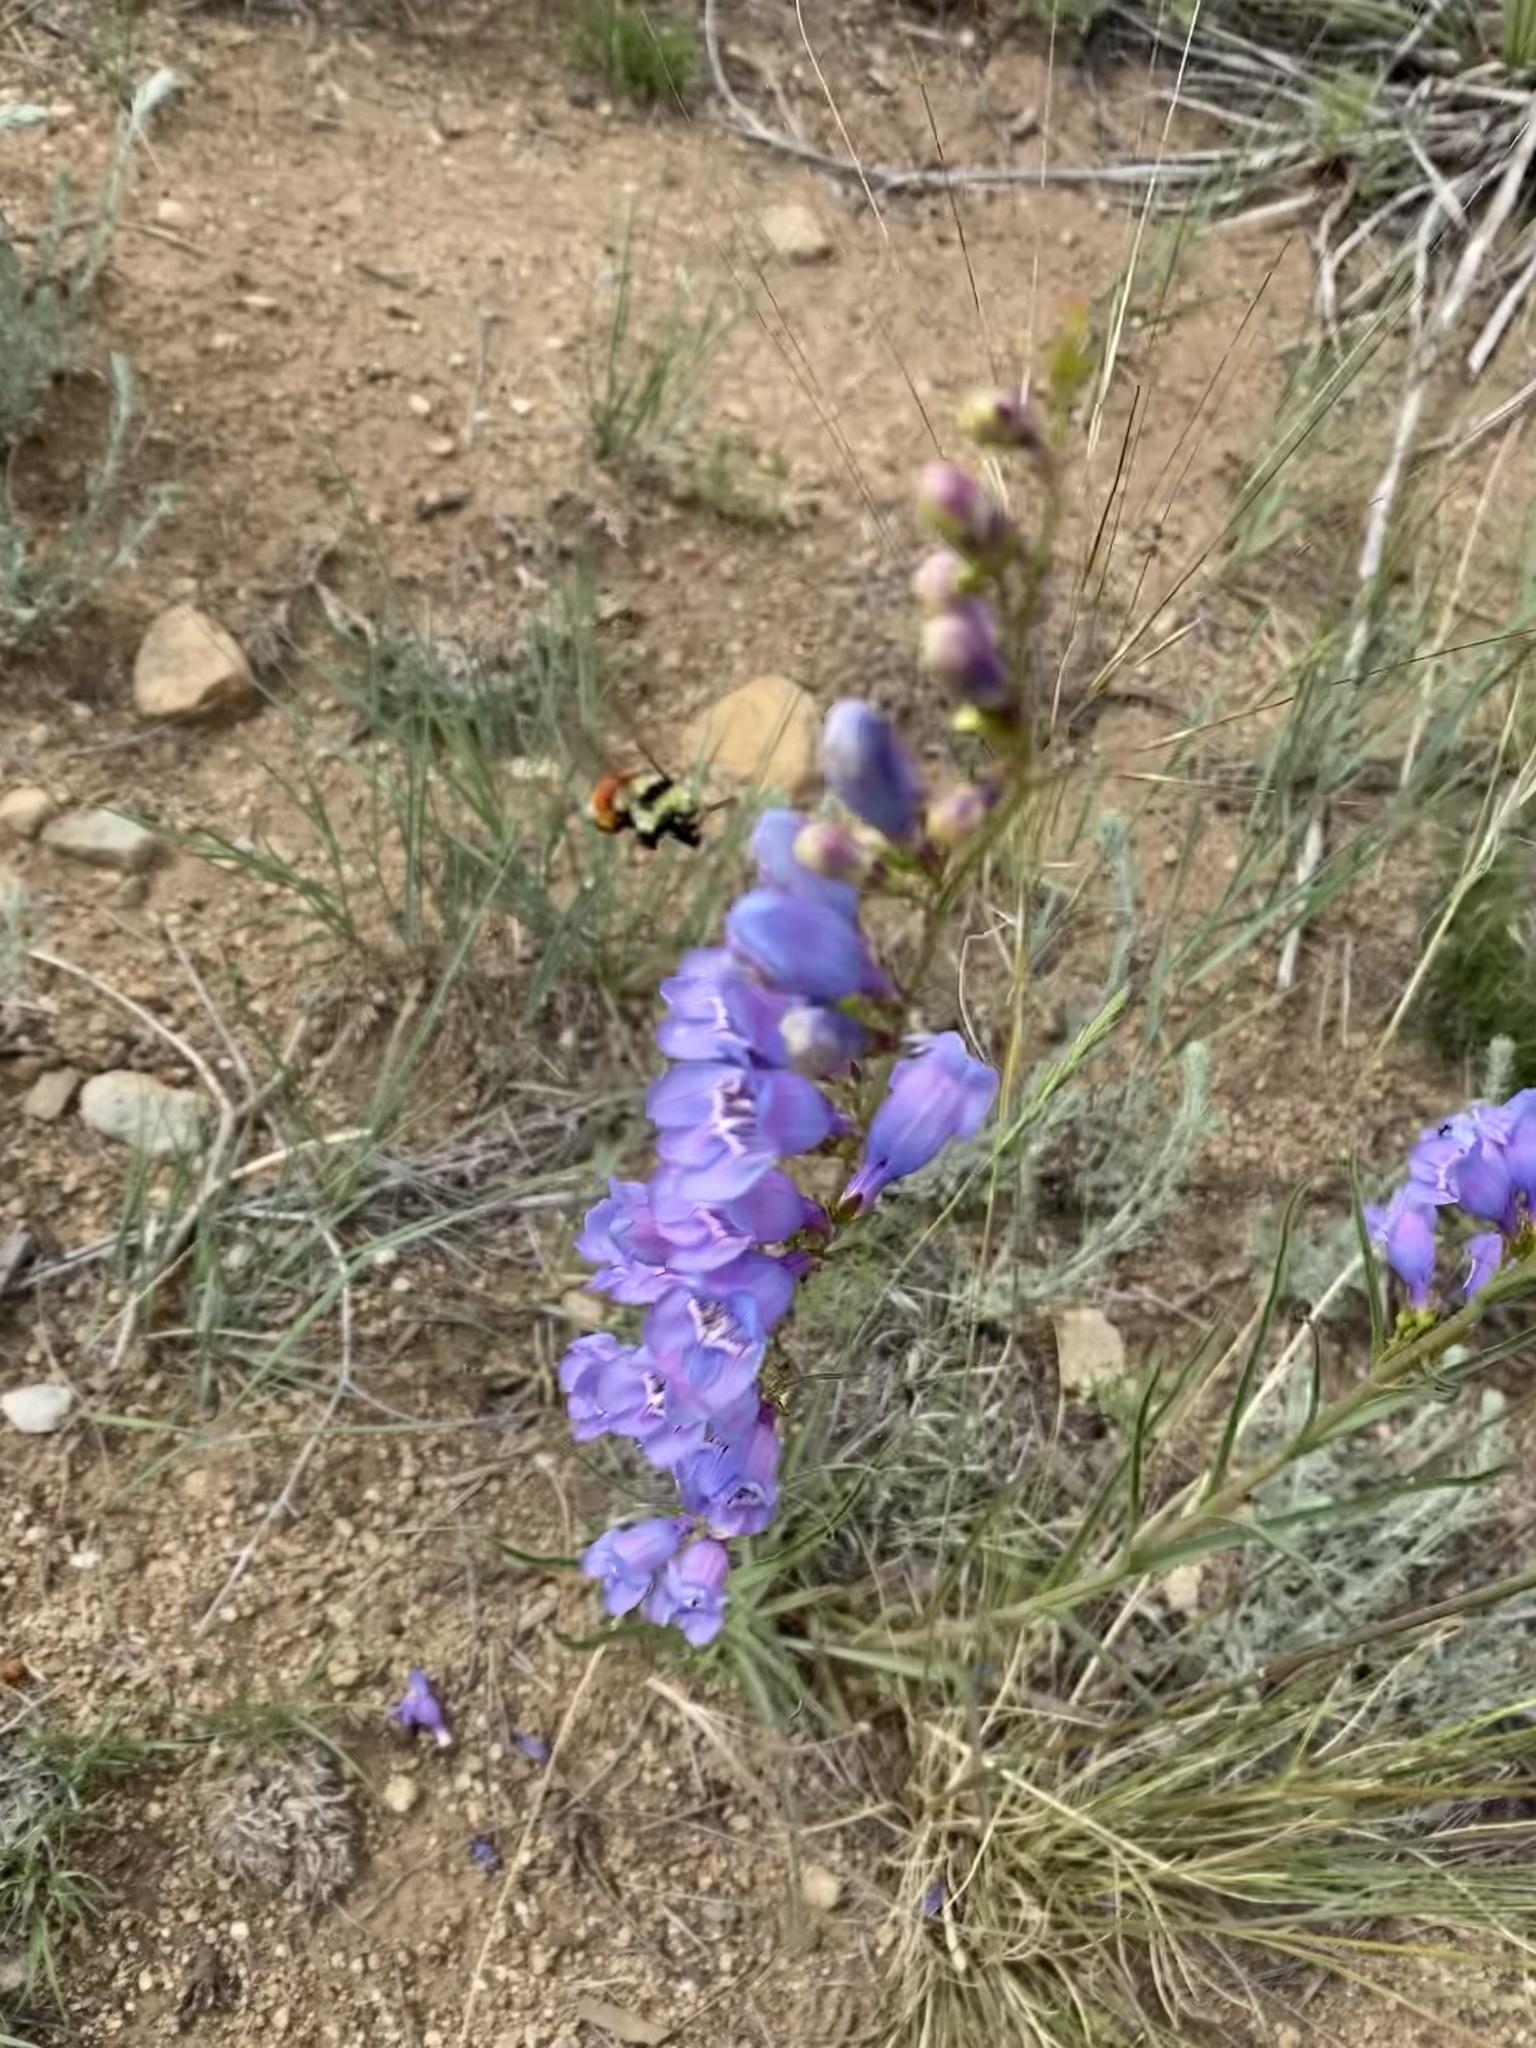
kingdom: Animalia
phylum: Arthropoda
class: Insecta
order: Hymenoptera
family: Apidae
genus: Bombus
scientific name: Bombus huntii
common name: Hunt bumble bee
